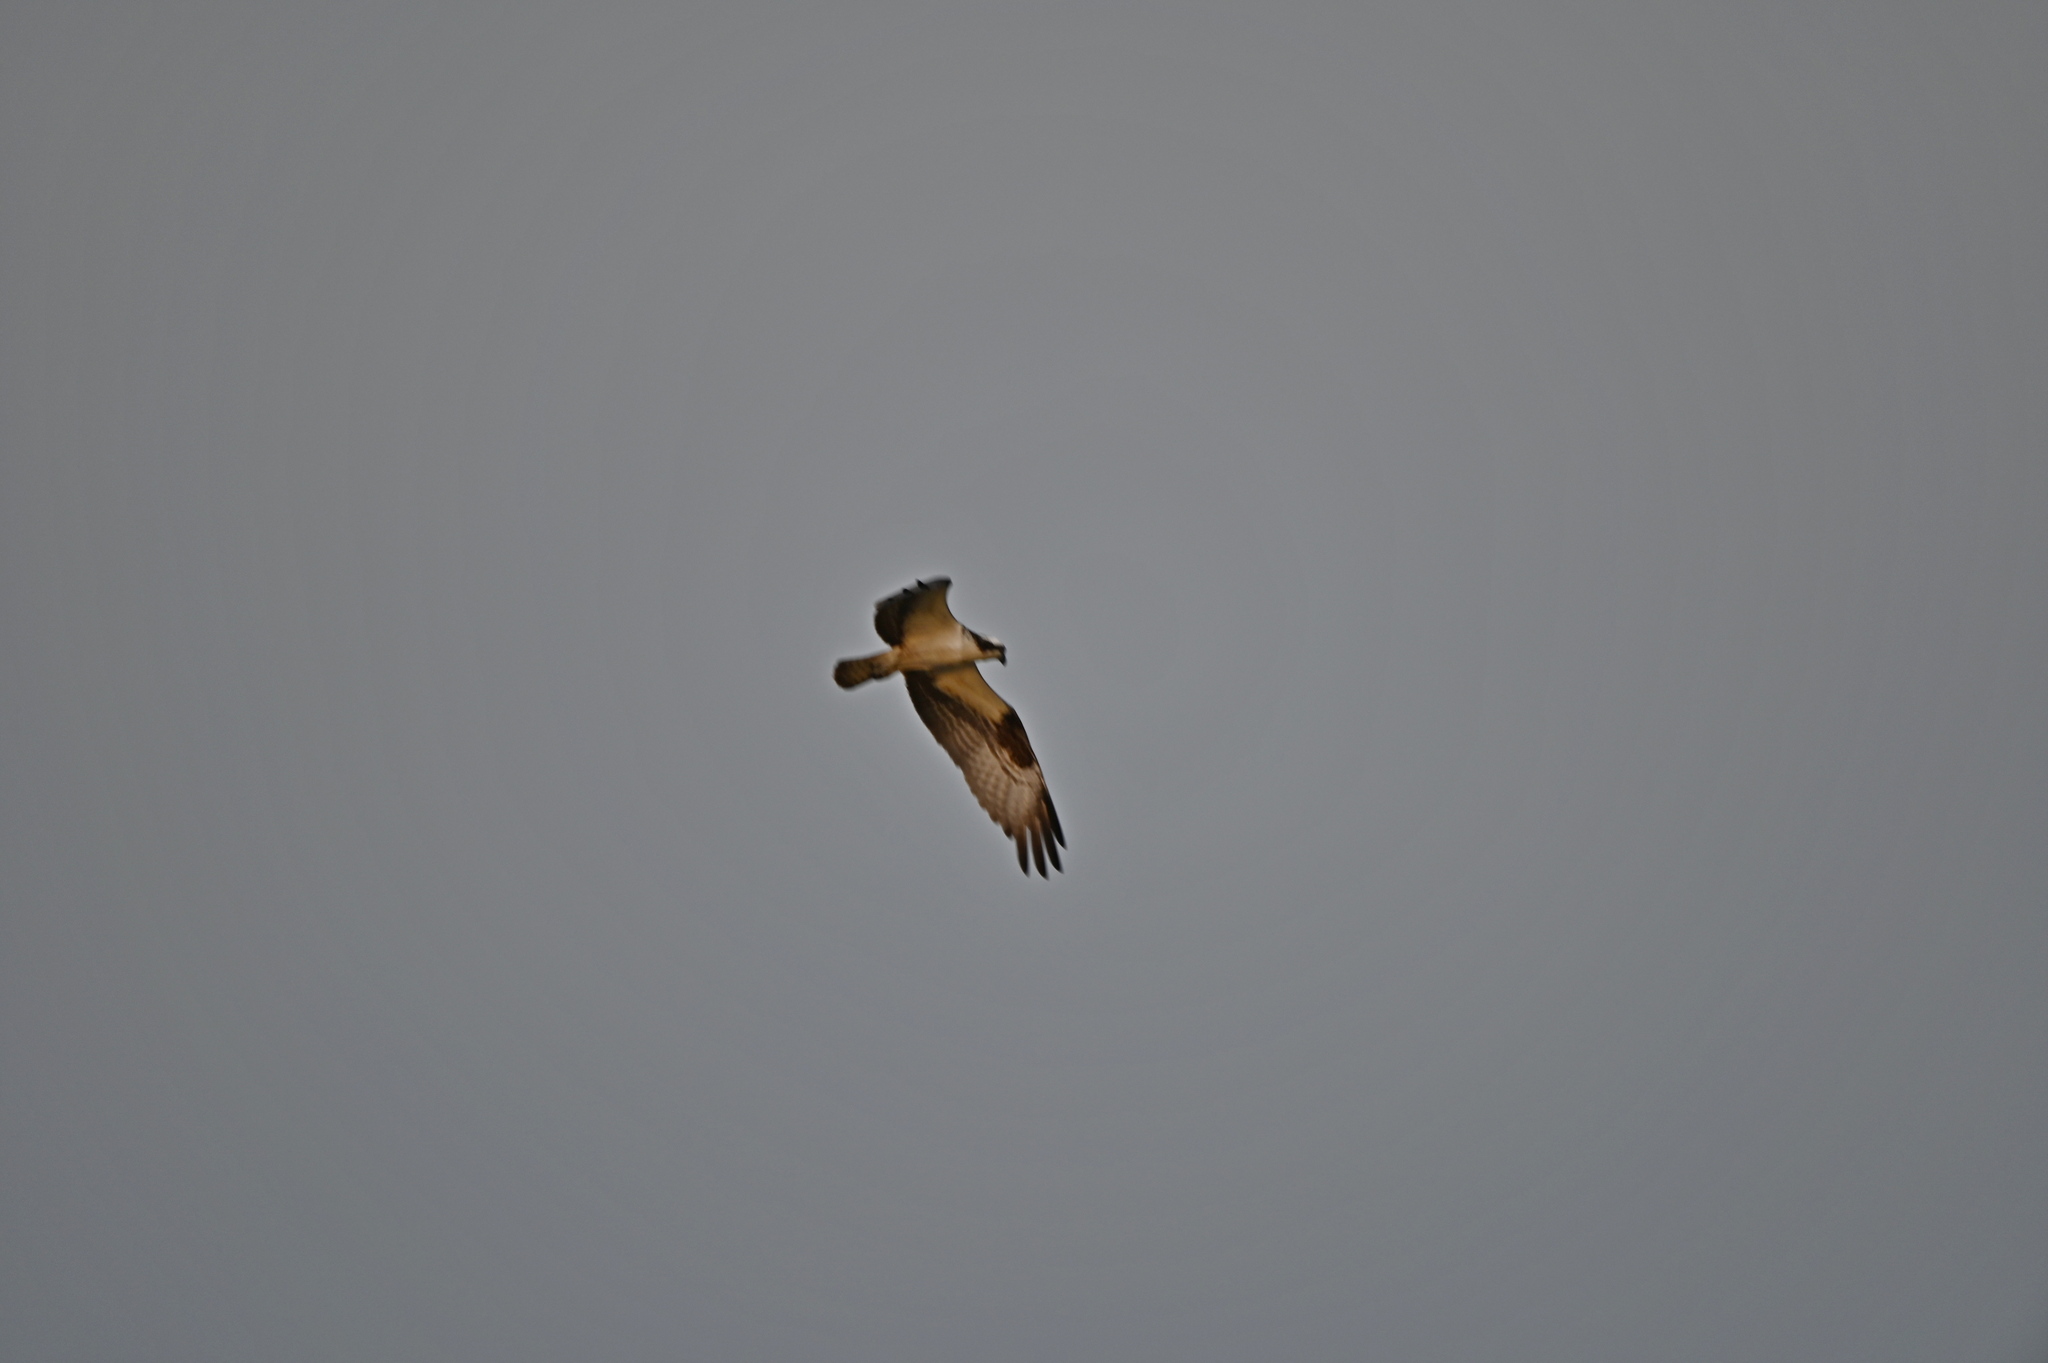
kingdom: Animalia
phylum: Chordata
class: Aves
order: Accipitriformes
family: Pandionidae
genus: Pandion
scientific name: Pandion haliaetus
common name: Osprey
